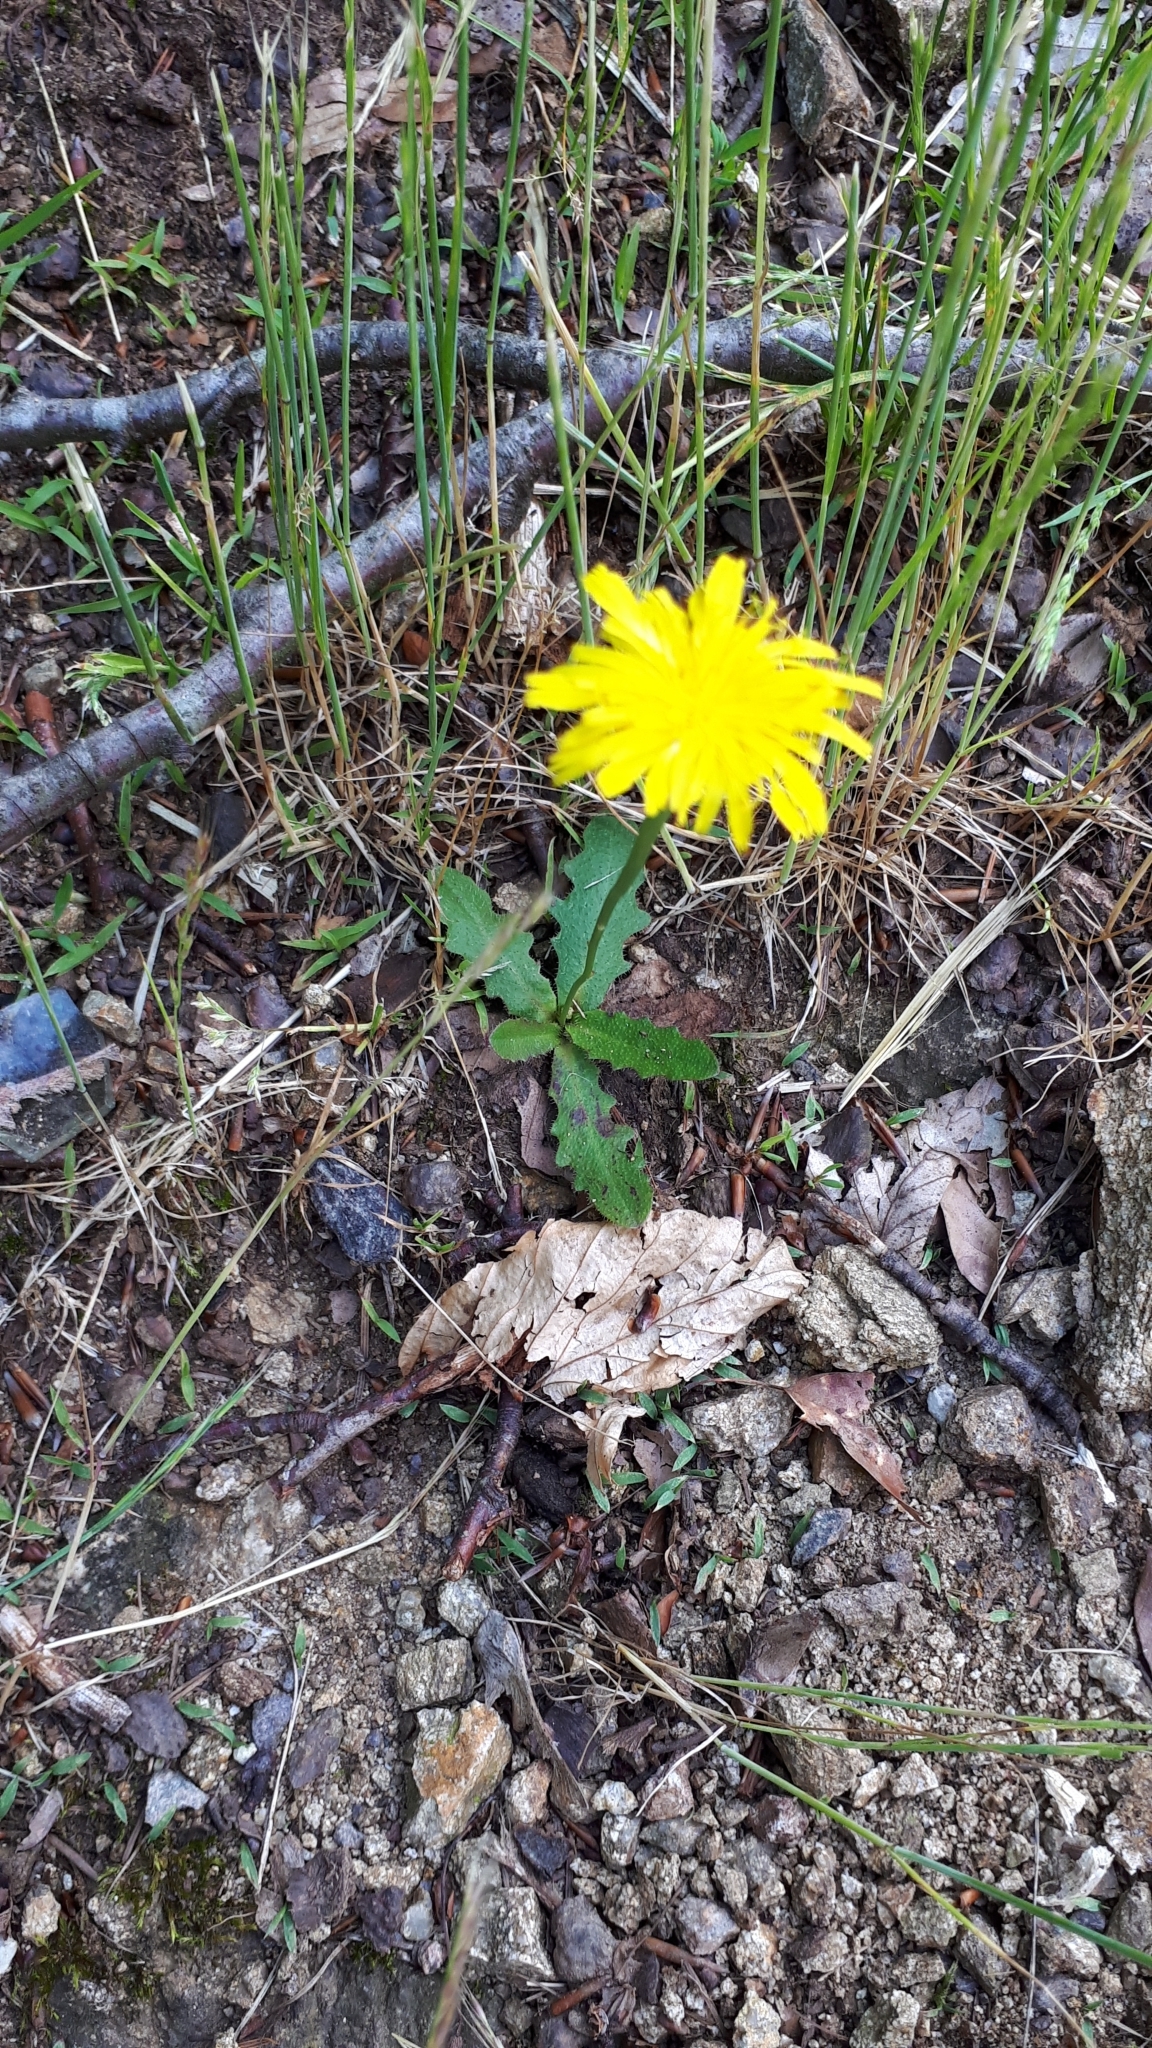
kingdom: Plantae
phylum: Tracheophyta
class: Magnoliopsida
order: Asterales
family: Asteraceae
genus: Hypochaeris
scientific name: Hypochaeris radicata
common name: Flatweed
